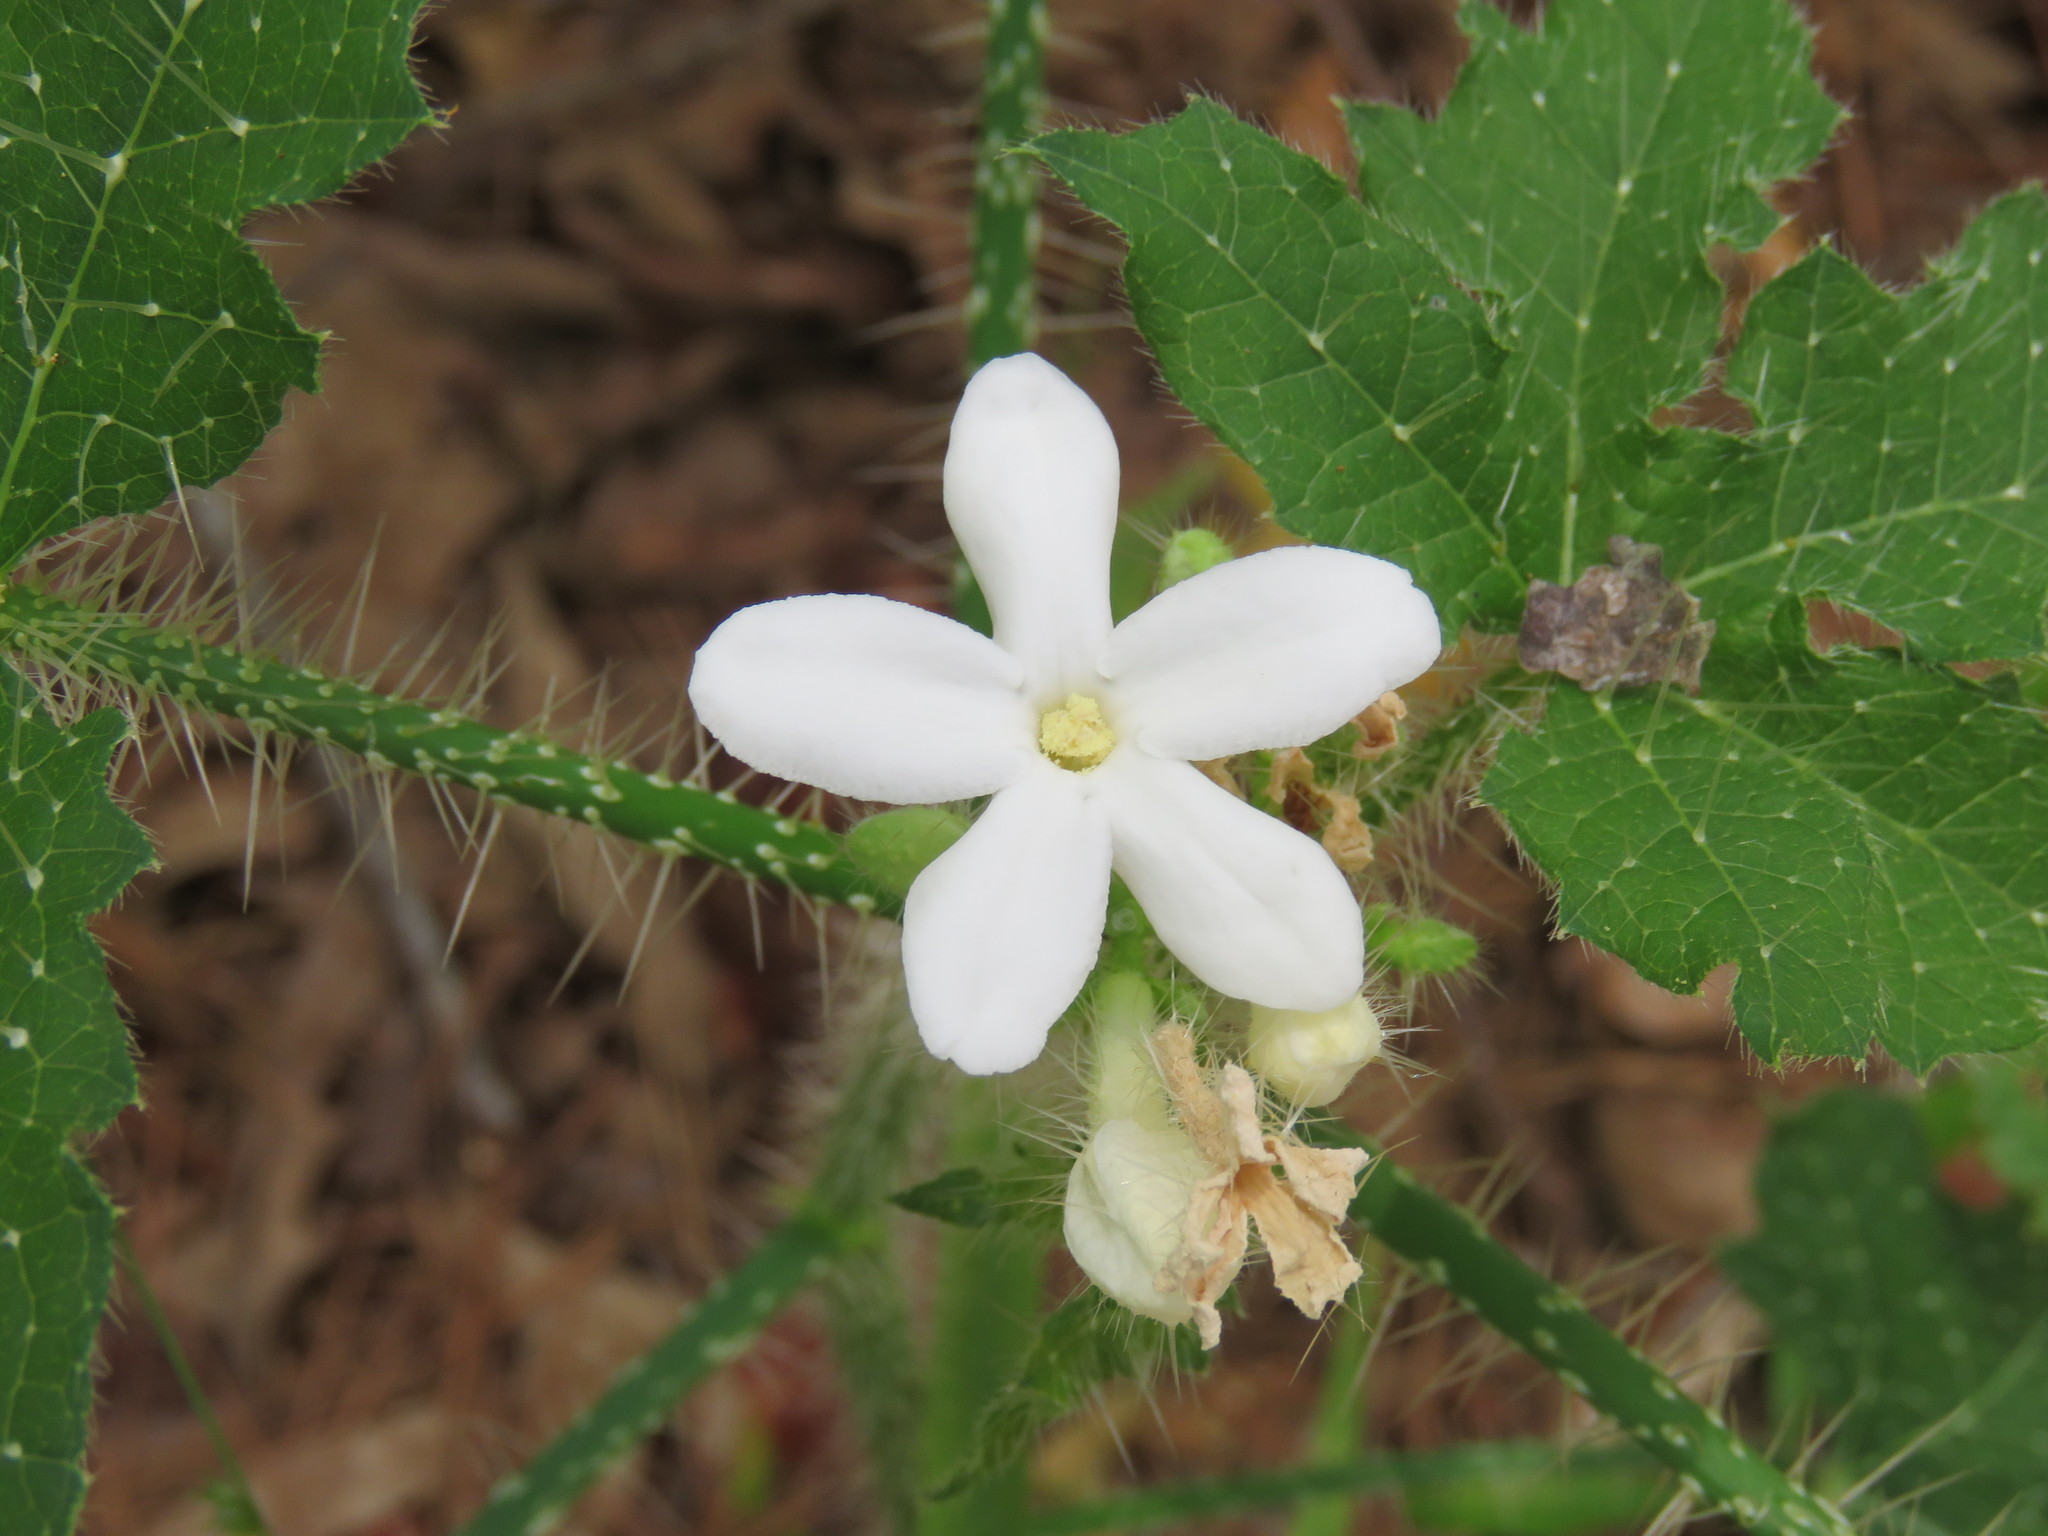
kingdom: Plantae
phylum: Tracheophyta
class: Magnoliopsida
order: Malpighiales
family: Euphorbiaceae
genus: Cnidoscolus
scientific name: Cnidoscolus texanus
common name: Texas bull-nettle
